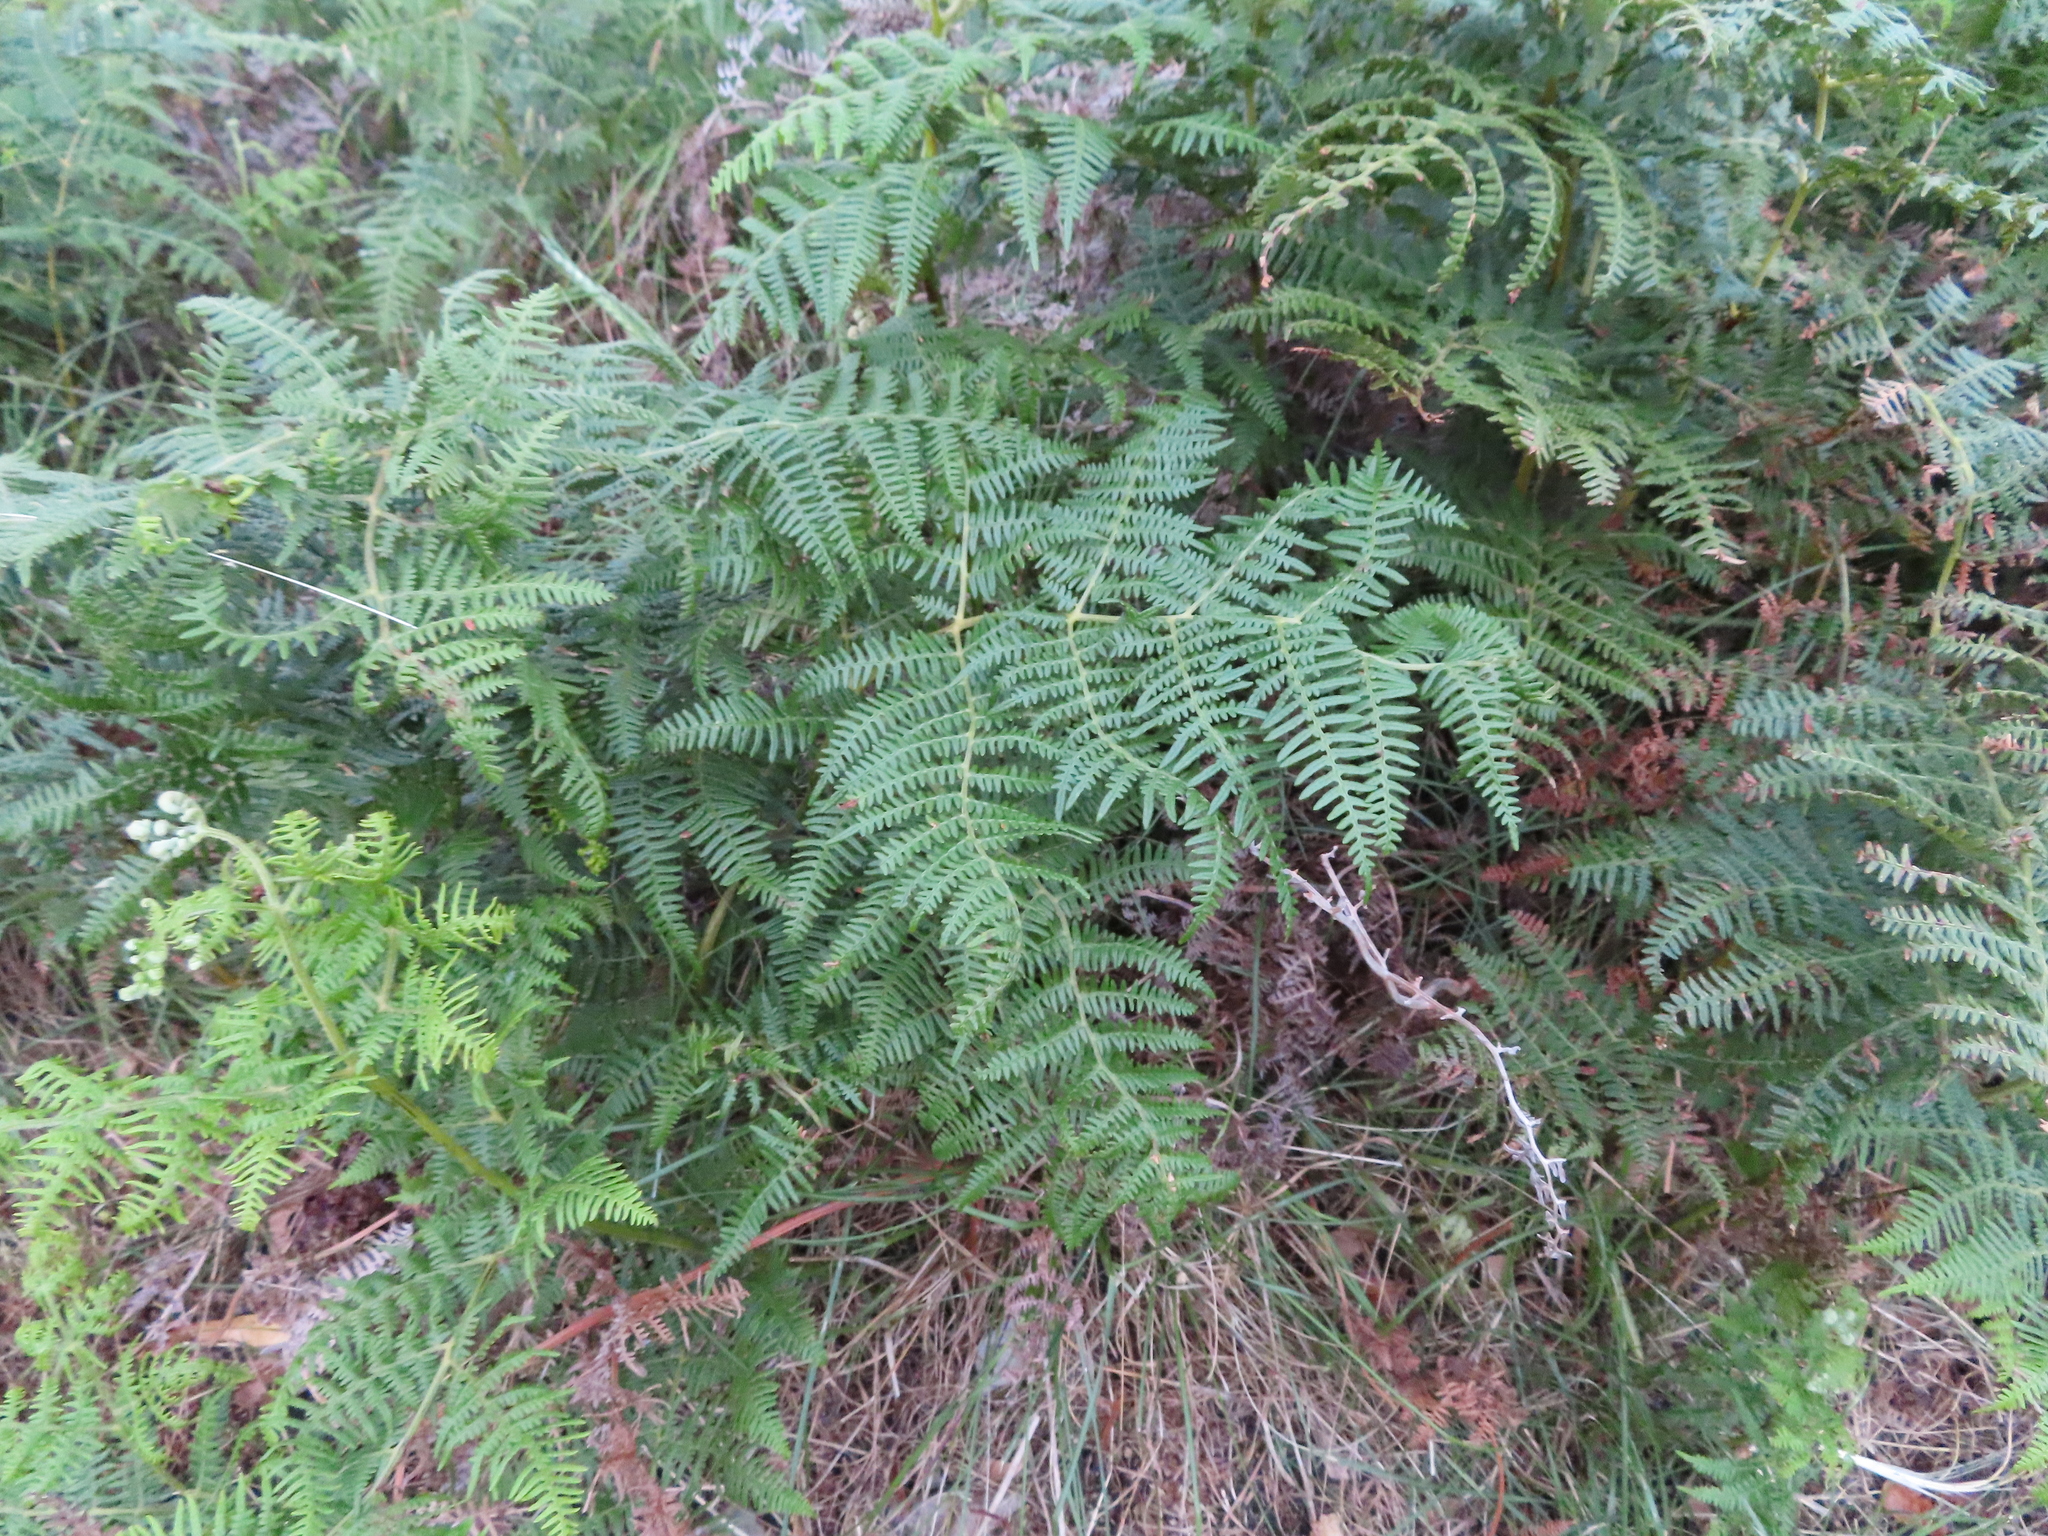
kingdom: Plantae
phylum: Tracheophyta
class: Polypodiopsida
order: Polypodiales
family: Dennstaedtiaceae
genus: Pteridium
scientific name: Pteridium aquilinum
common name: Bracken
